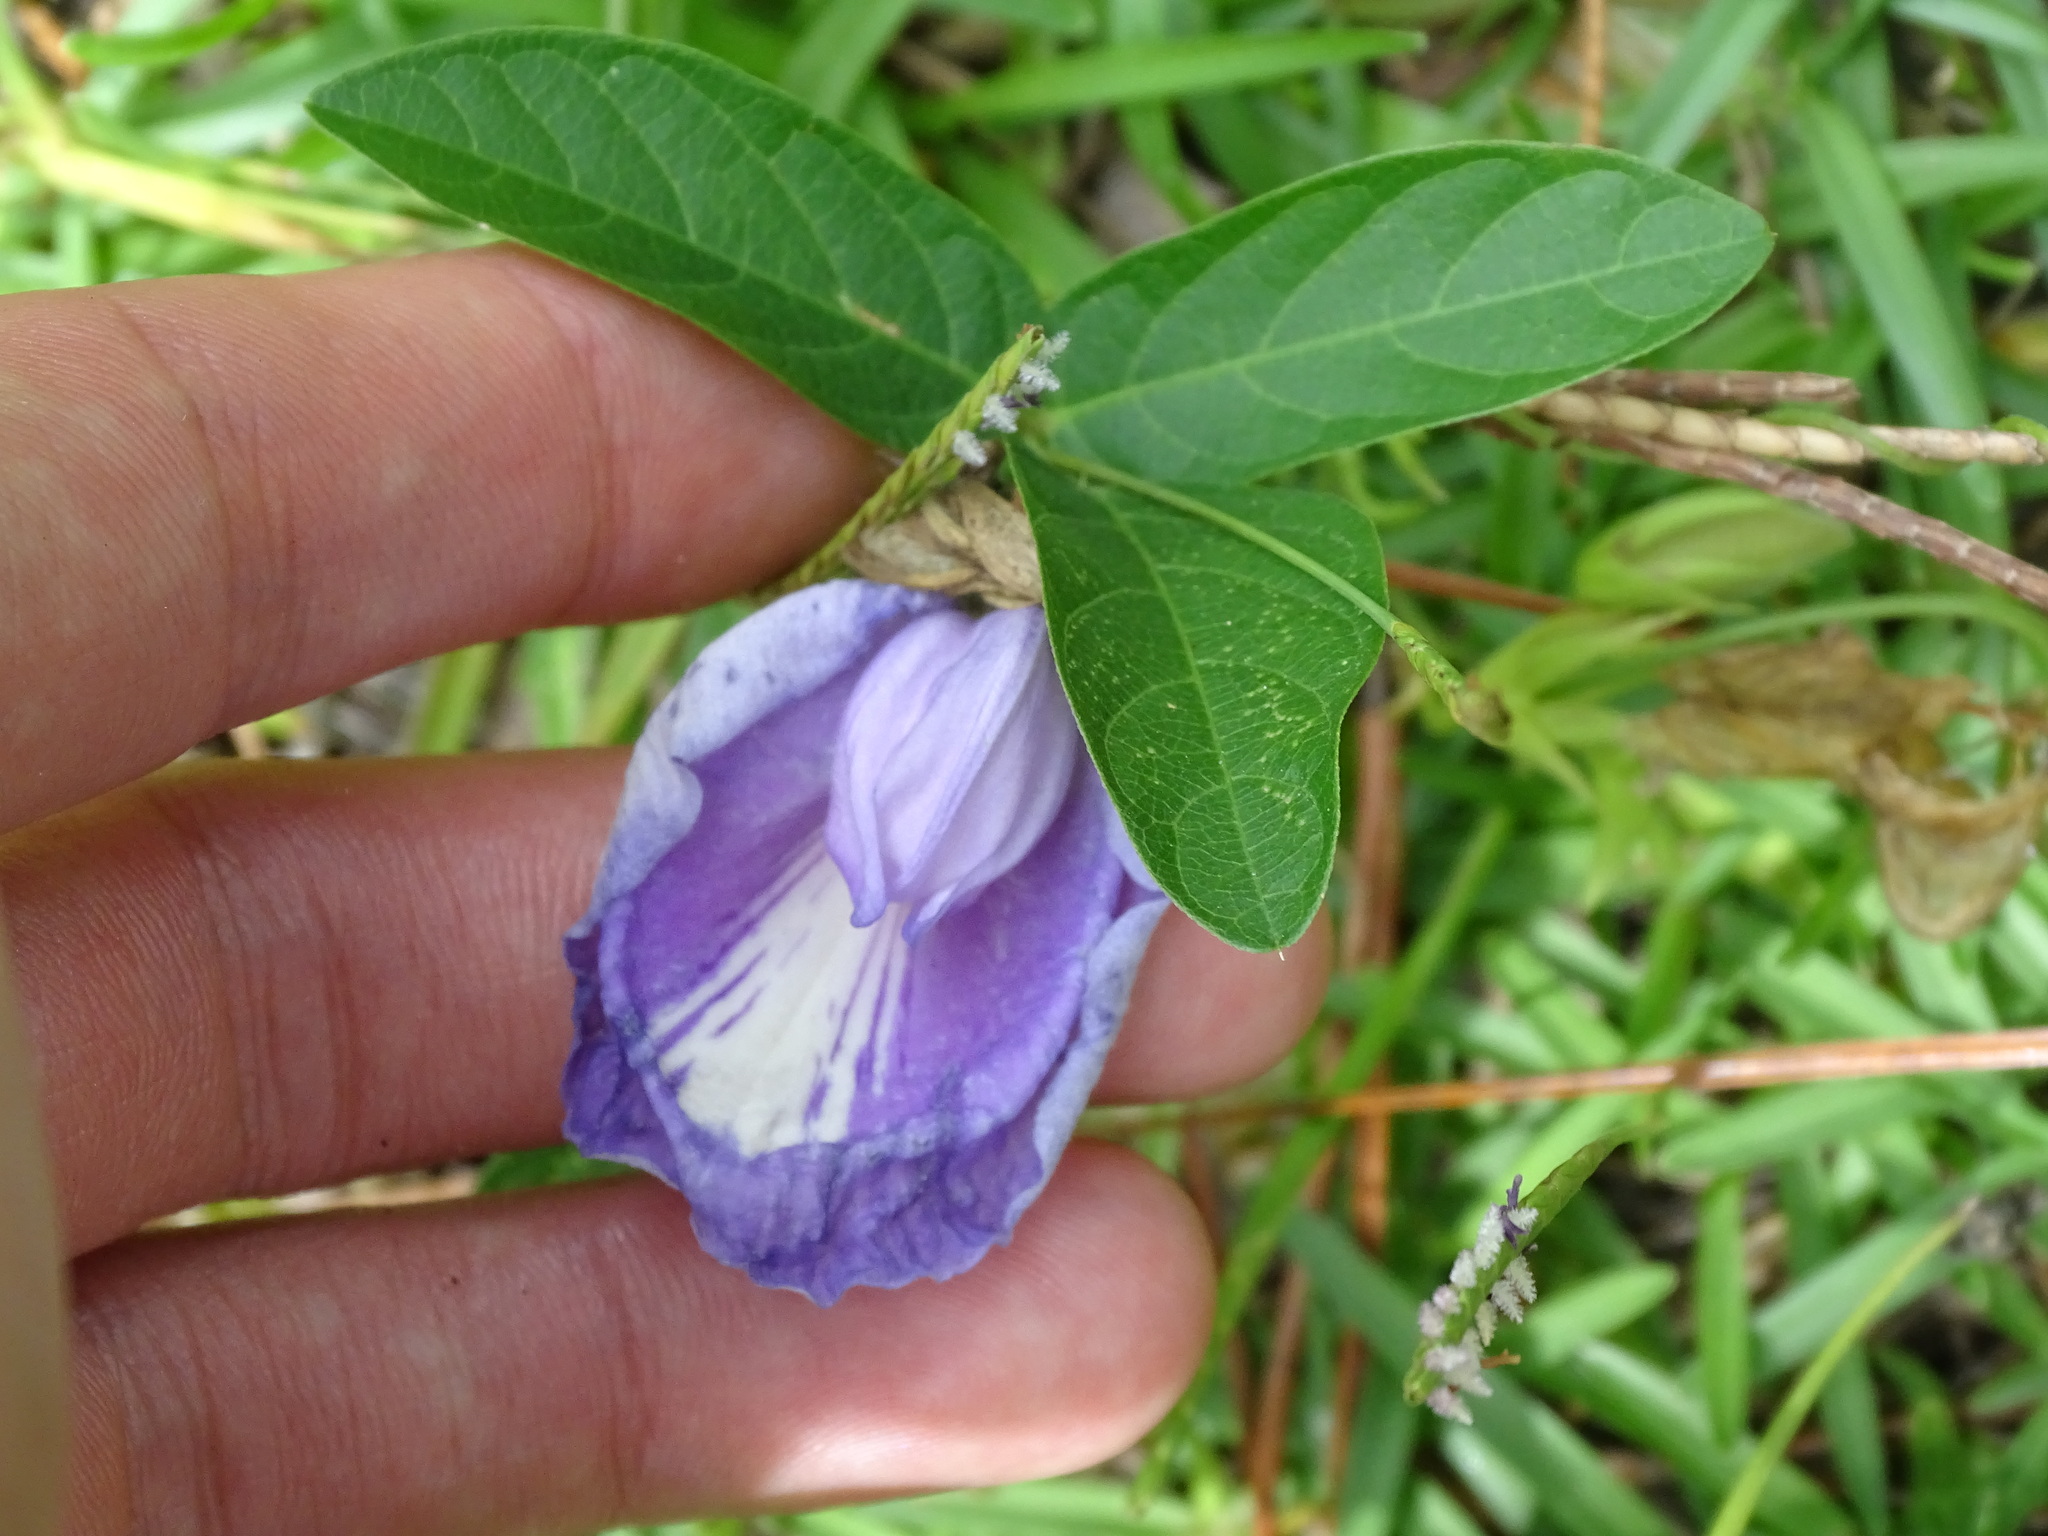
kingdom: Plantae
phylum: Tracheophyta
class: Magnoliopsida
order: Fabales
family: Fabaceae
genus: Centrosema
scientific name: Centrosema virginianum
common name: Butterfly-pea
